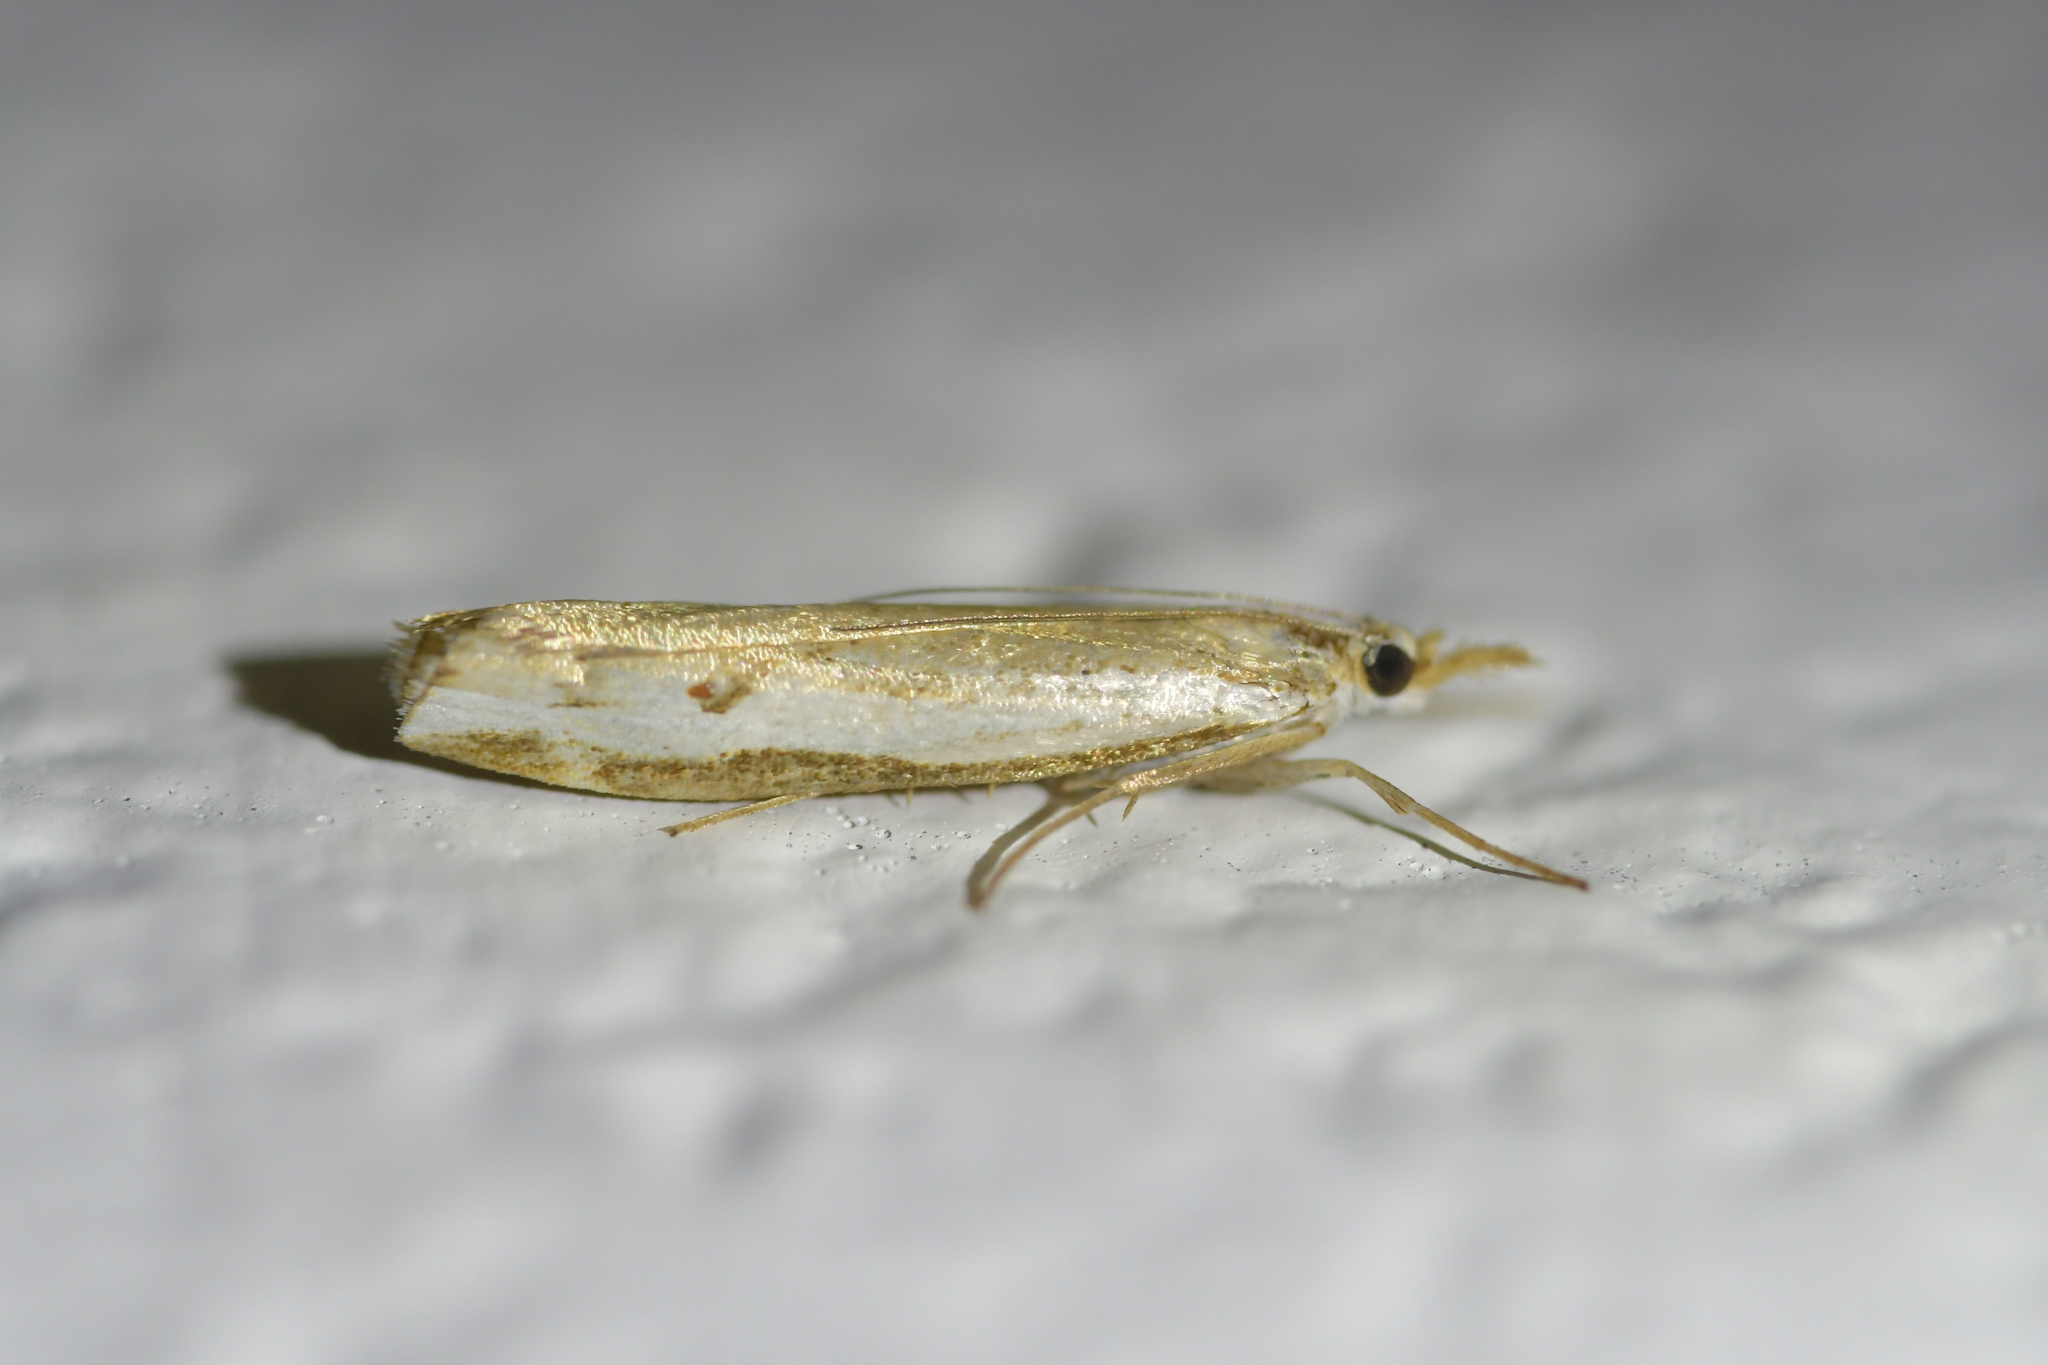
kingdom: Animalia
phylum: Arthropoda
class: Insecta
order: Lepidoptera
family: Crambidae
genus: Orocrambus
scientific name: Orocrambus flexuosellus
